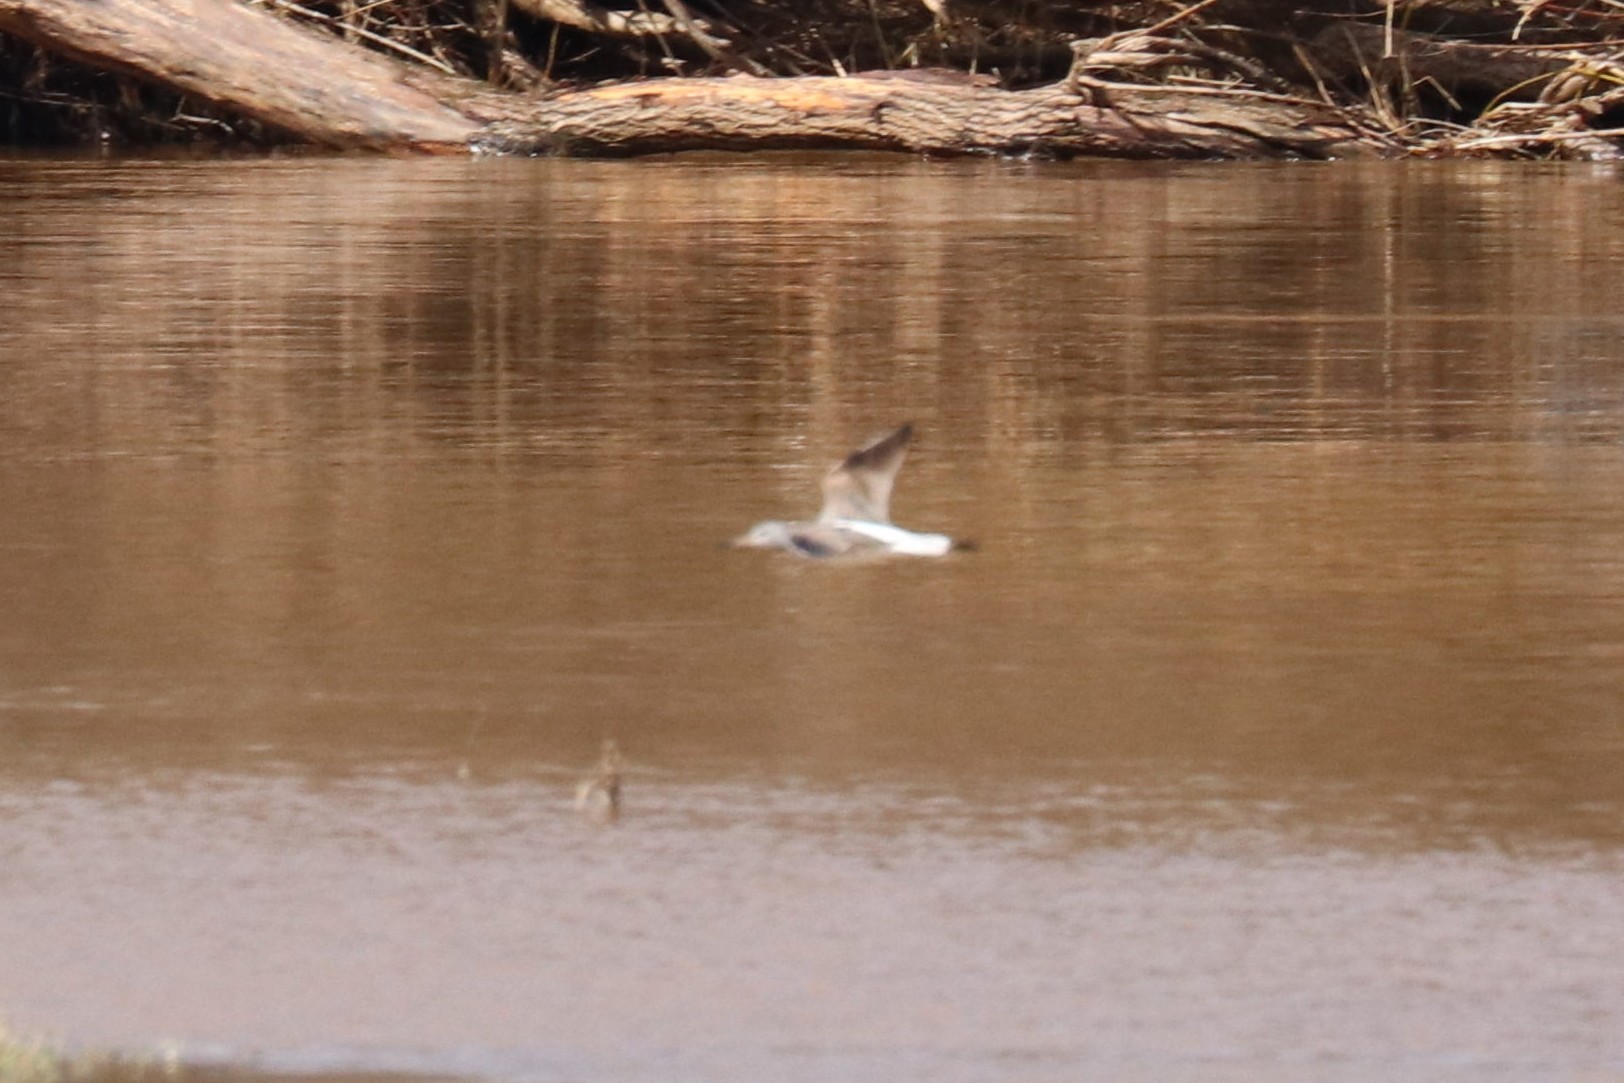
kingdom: Animalia
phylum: Chordata
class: Aves
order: Charadriiformes
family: Scolopacidae
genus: Tringa
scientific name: Tringa nebularia
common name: Common greenshank
